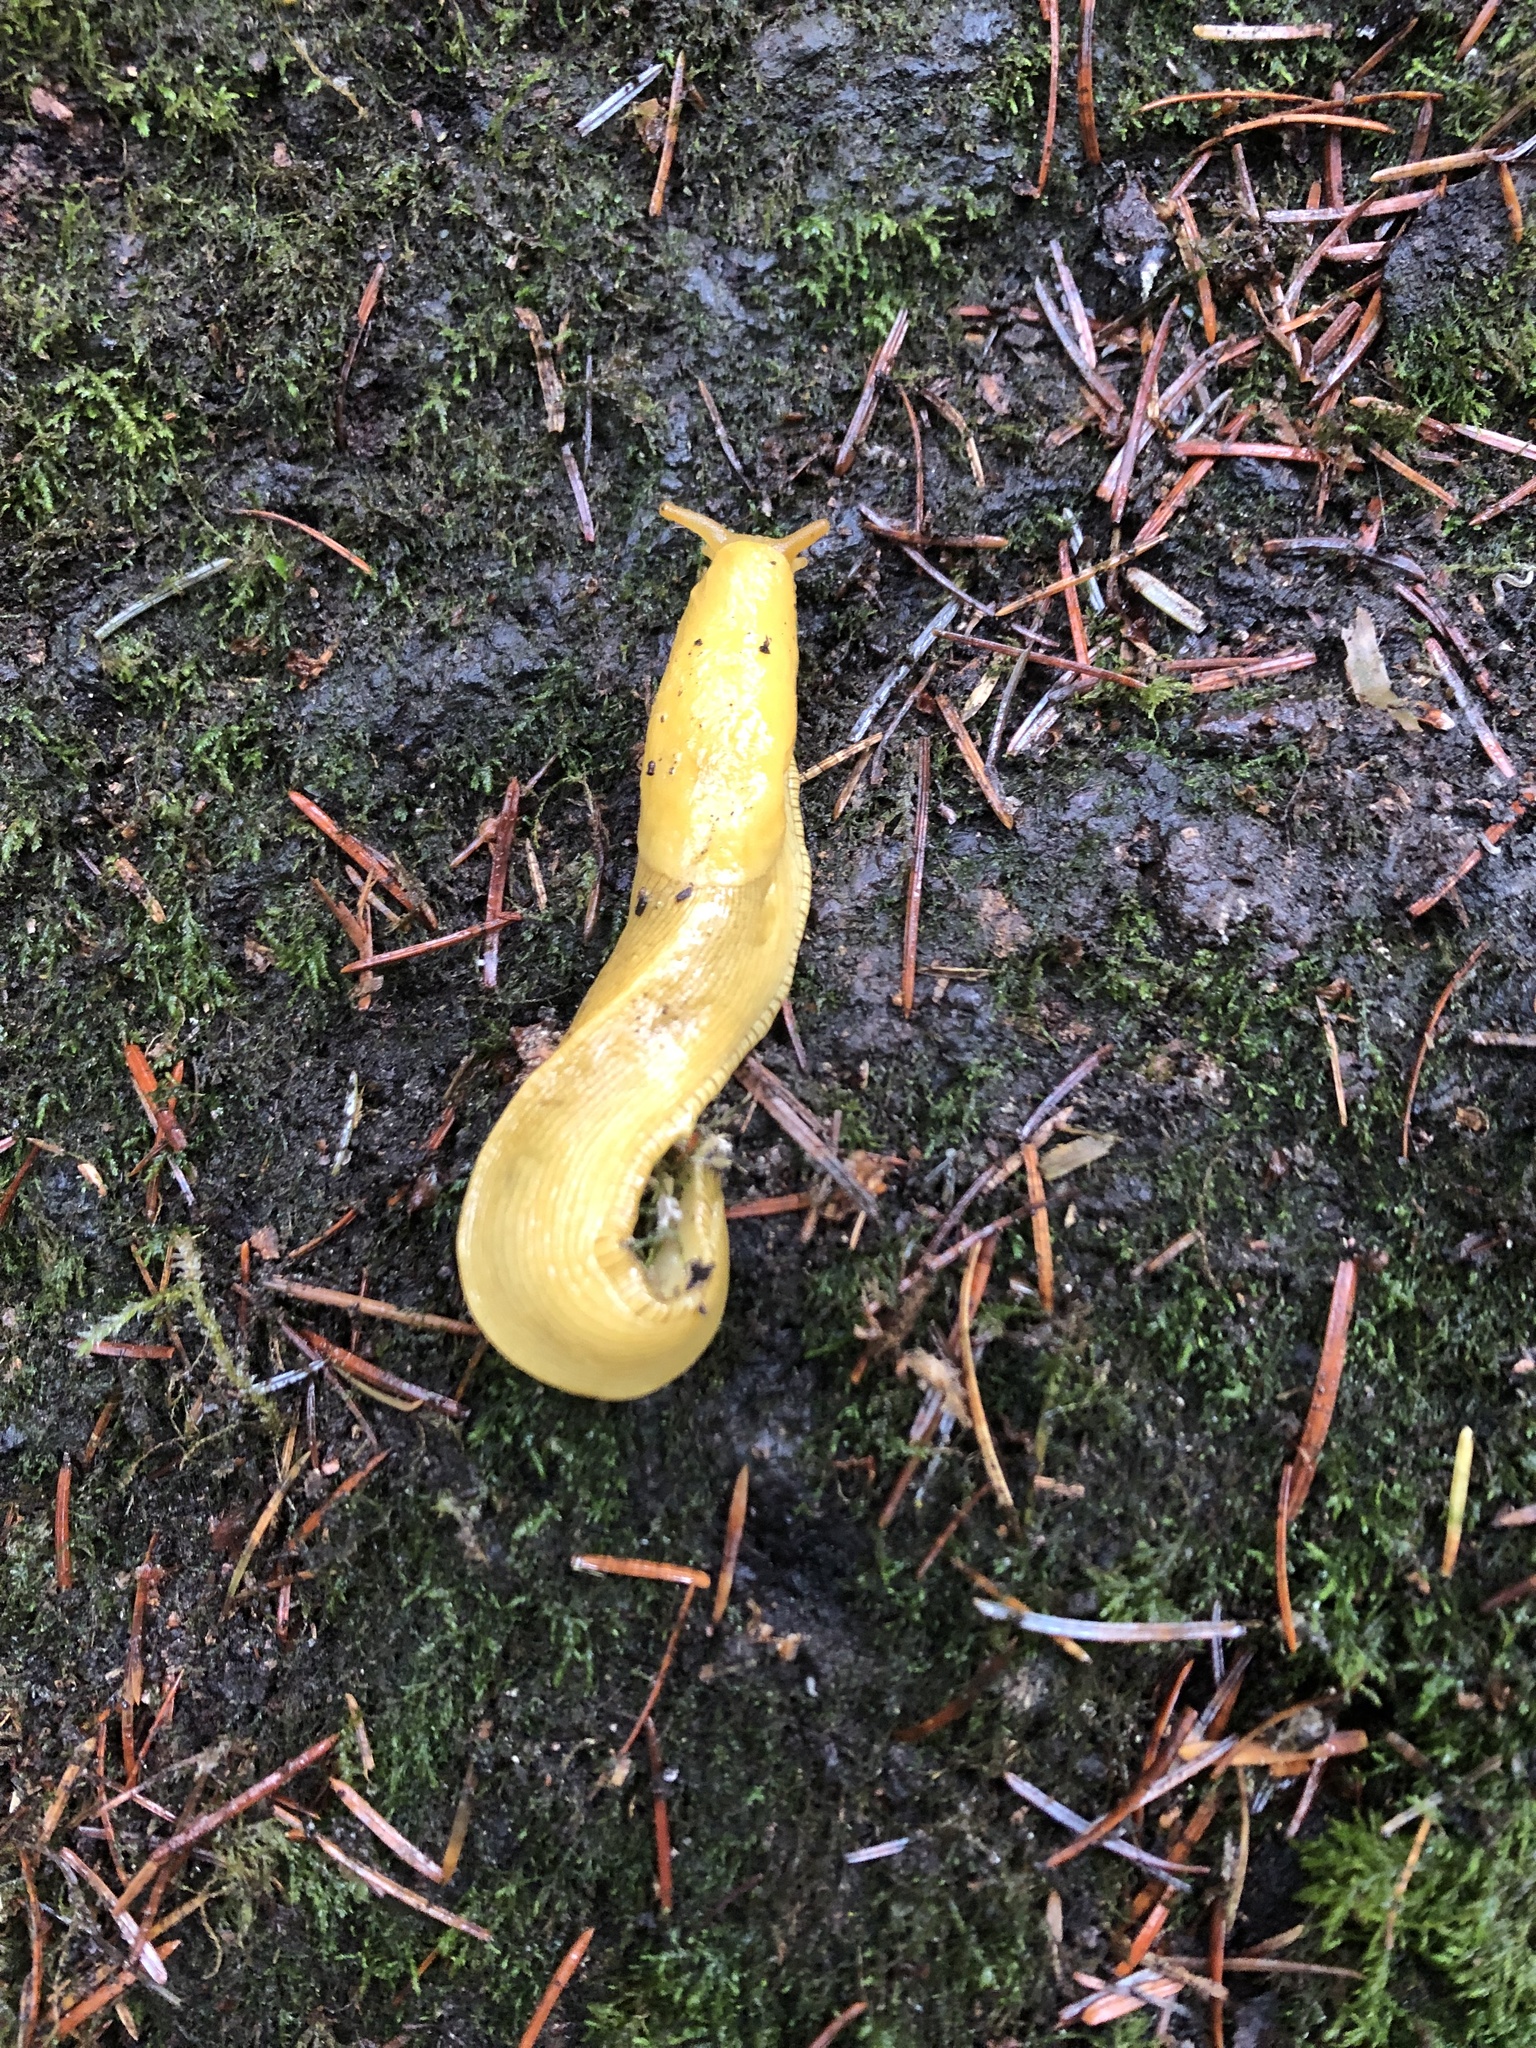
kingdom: Animalia
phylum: Mollusca
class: Gastropoda
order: Stylommatophora
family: Ariolimacidae
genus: Ariolimax
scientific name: Ariolimax columbianus
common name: Pacific banana slug
